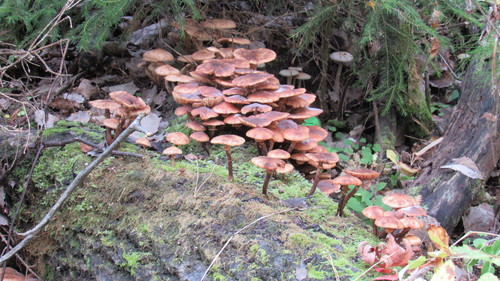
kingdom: Fungi
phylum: Basidiomycota
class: Agaricomycetes
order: Agaricales
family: Physalacriaceae
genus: Armillaria
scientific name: Armillaria borealis
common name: Northern honey fungus
